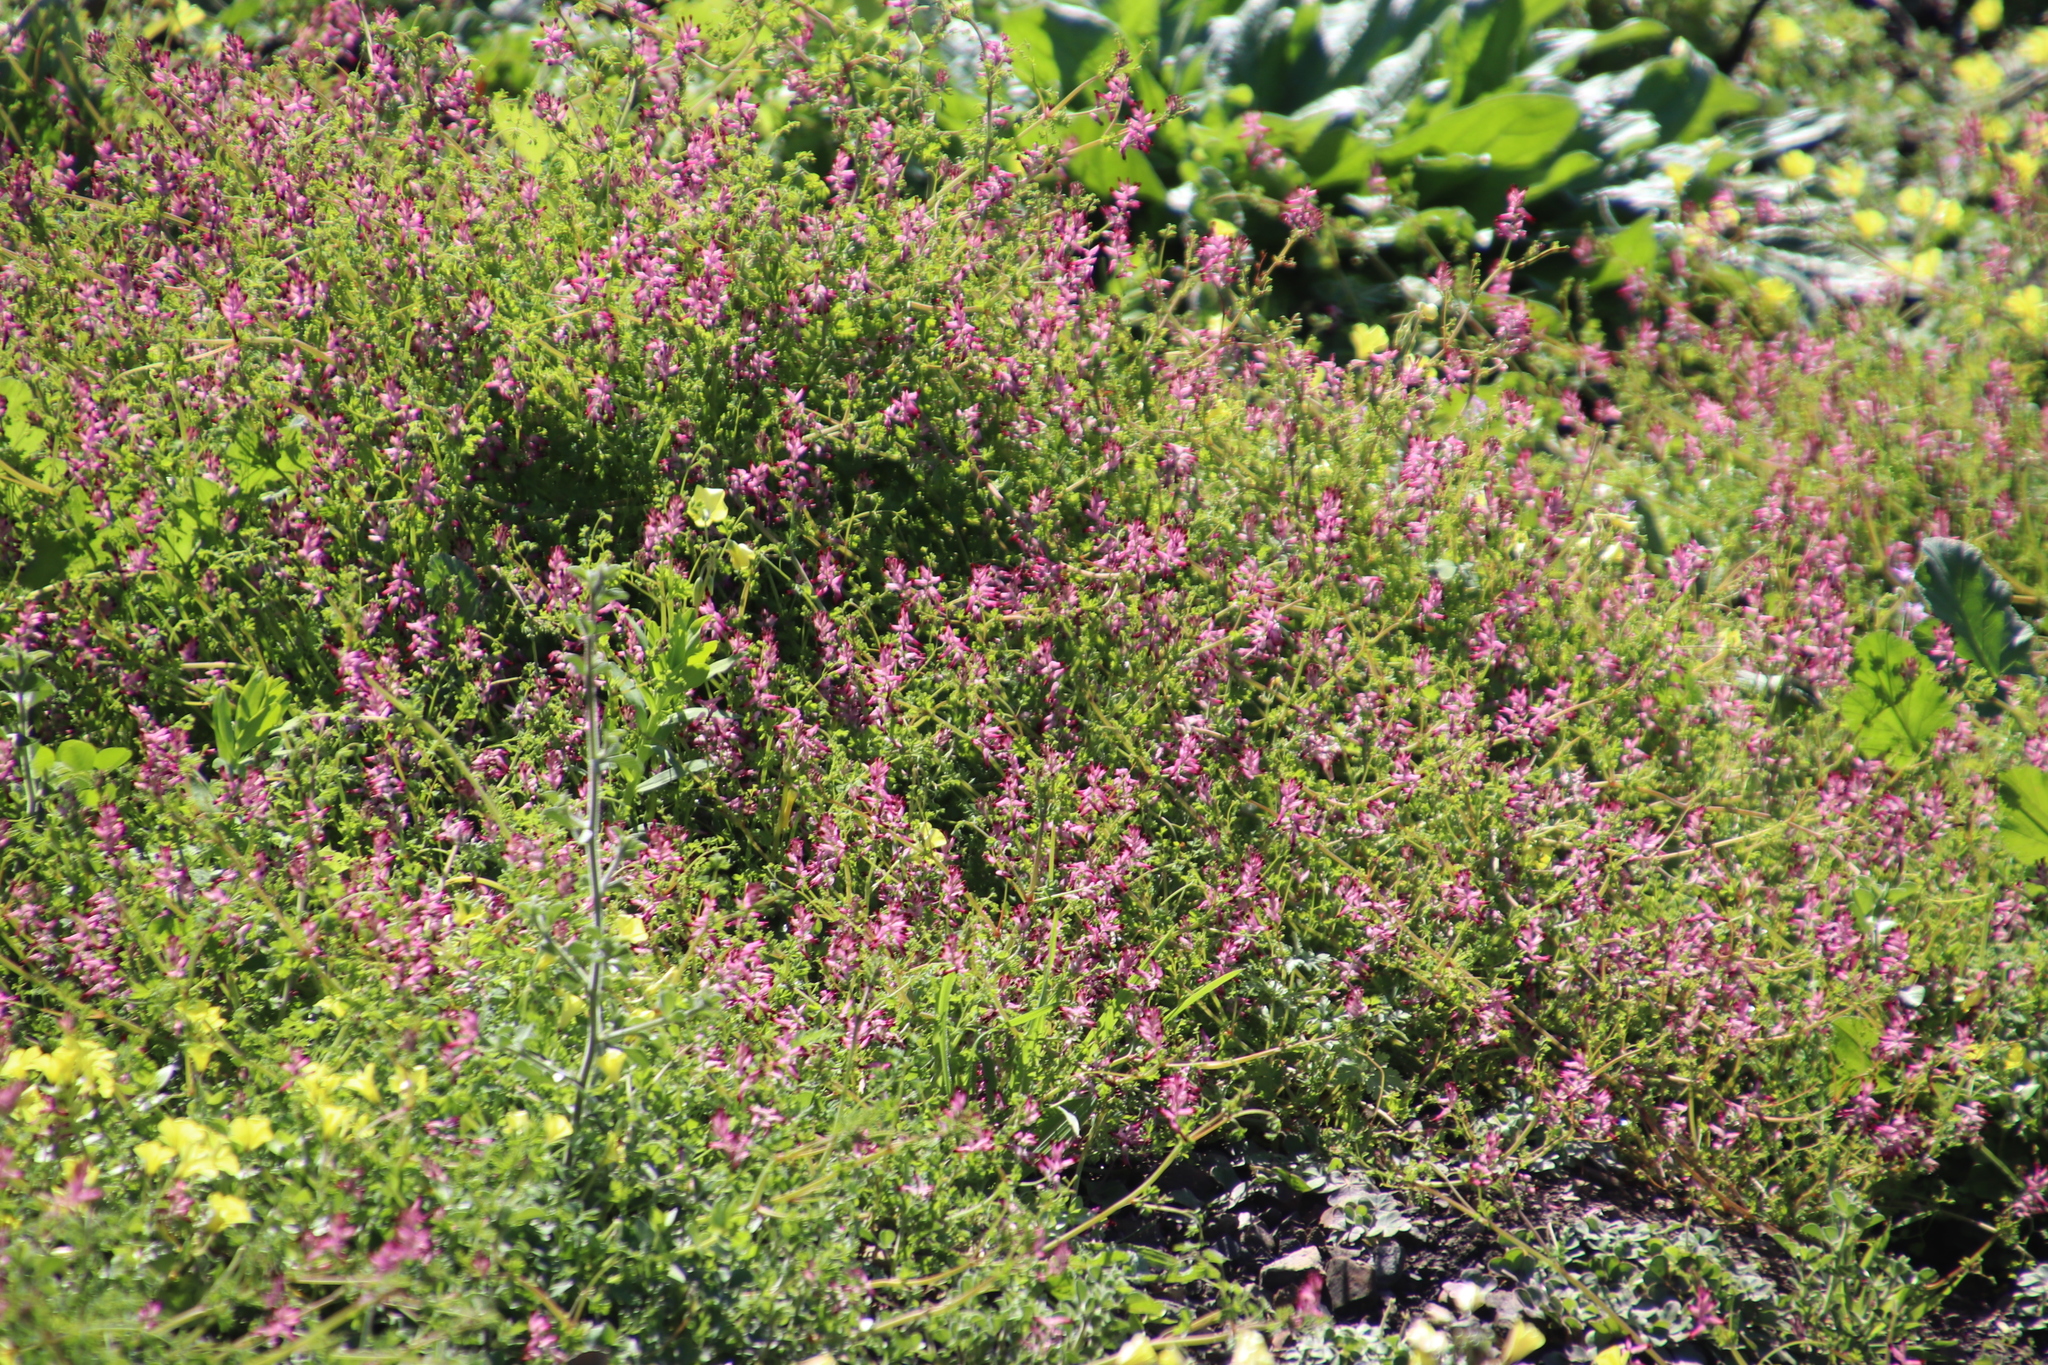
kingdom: Plantae
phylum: Tracheophyta
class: Magnoliopsida
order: Ranunculales
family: Papaveraceae
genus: Fumaria
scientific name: Fumaria muralis
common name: Common ramping-fumitory
